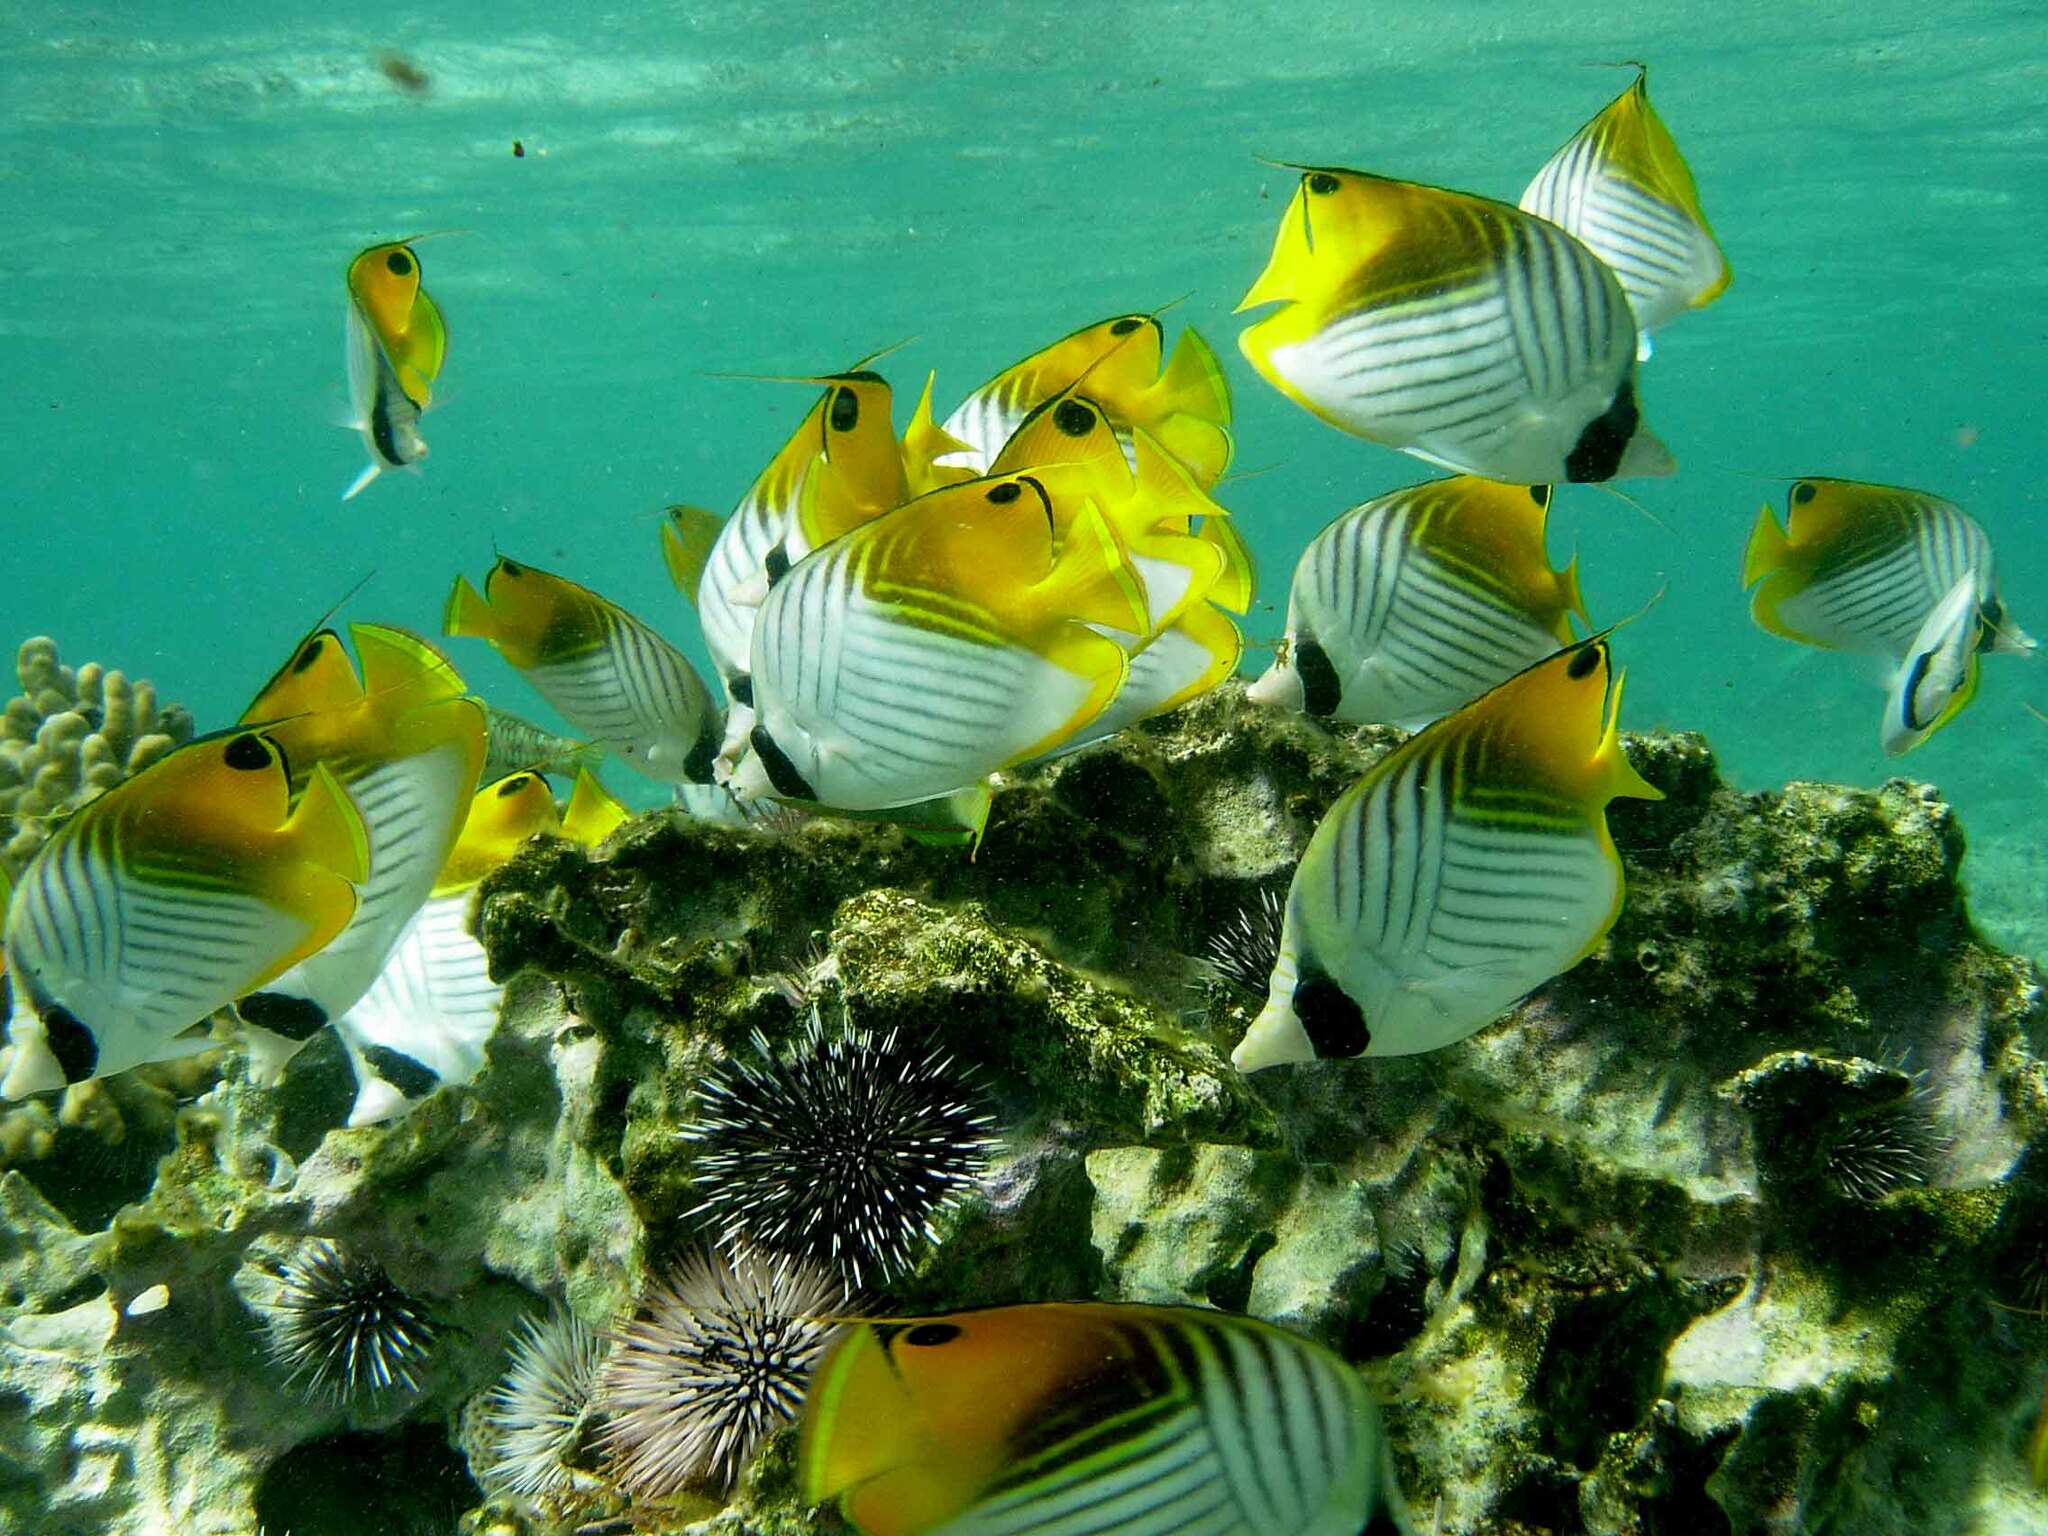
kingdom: Animalia
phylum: Chordata
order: Perciformes
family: Chaetodontidae
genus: Chaetodon
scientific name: Chaetodon auriga
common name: Threadfin butterflyfish
